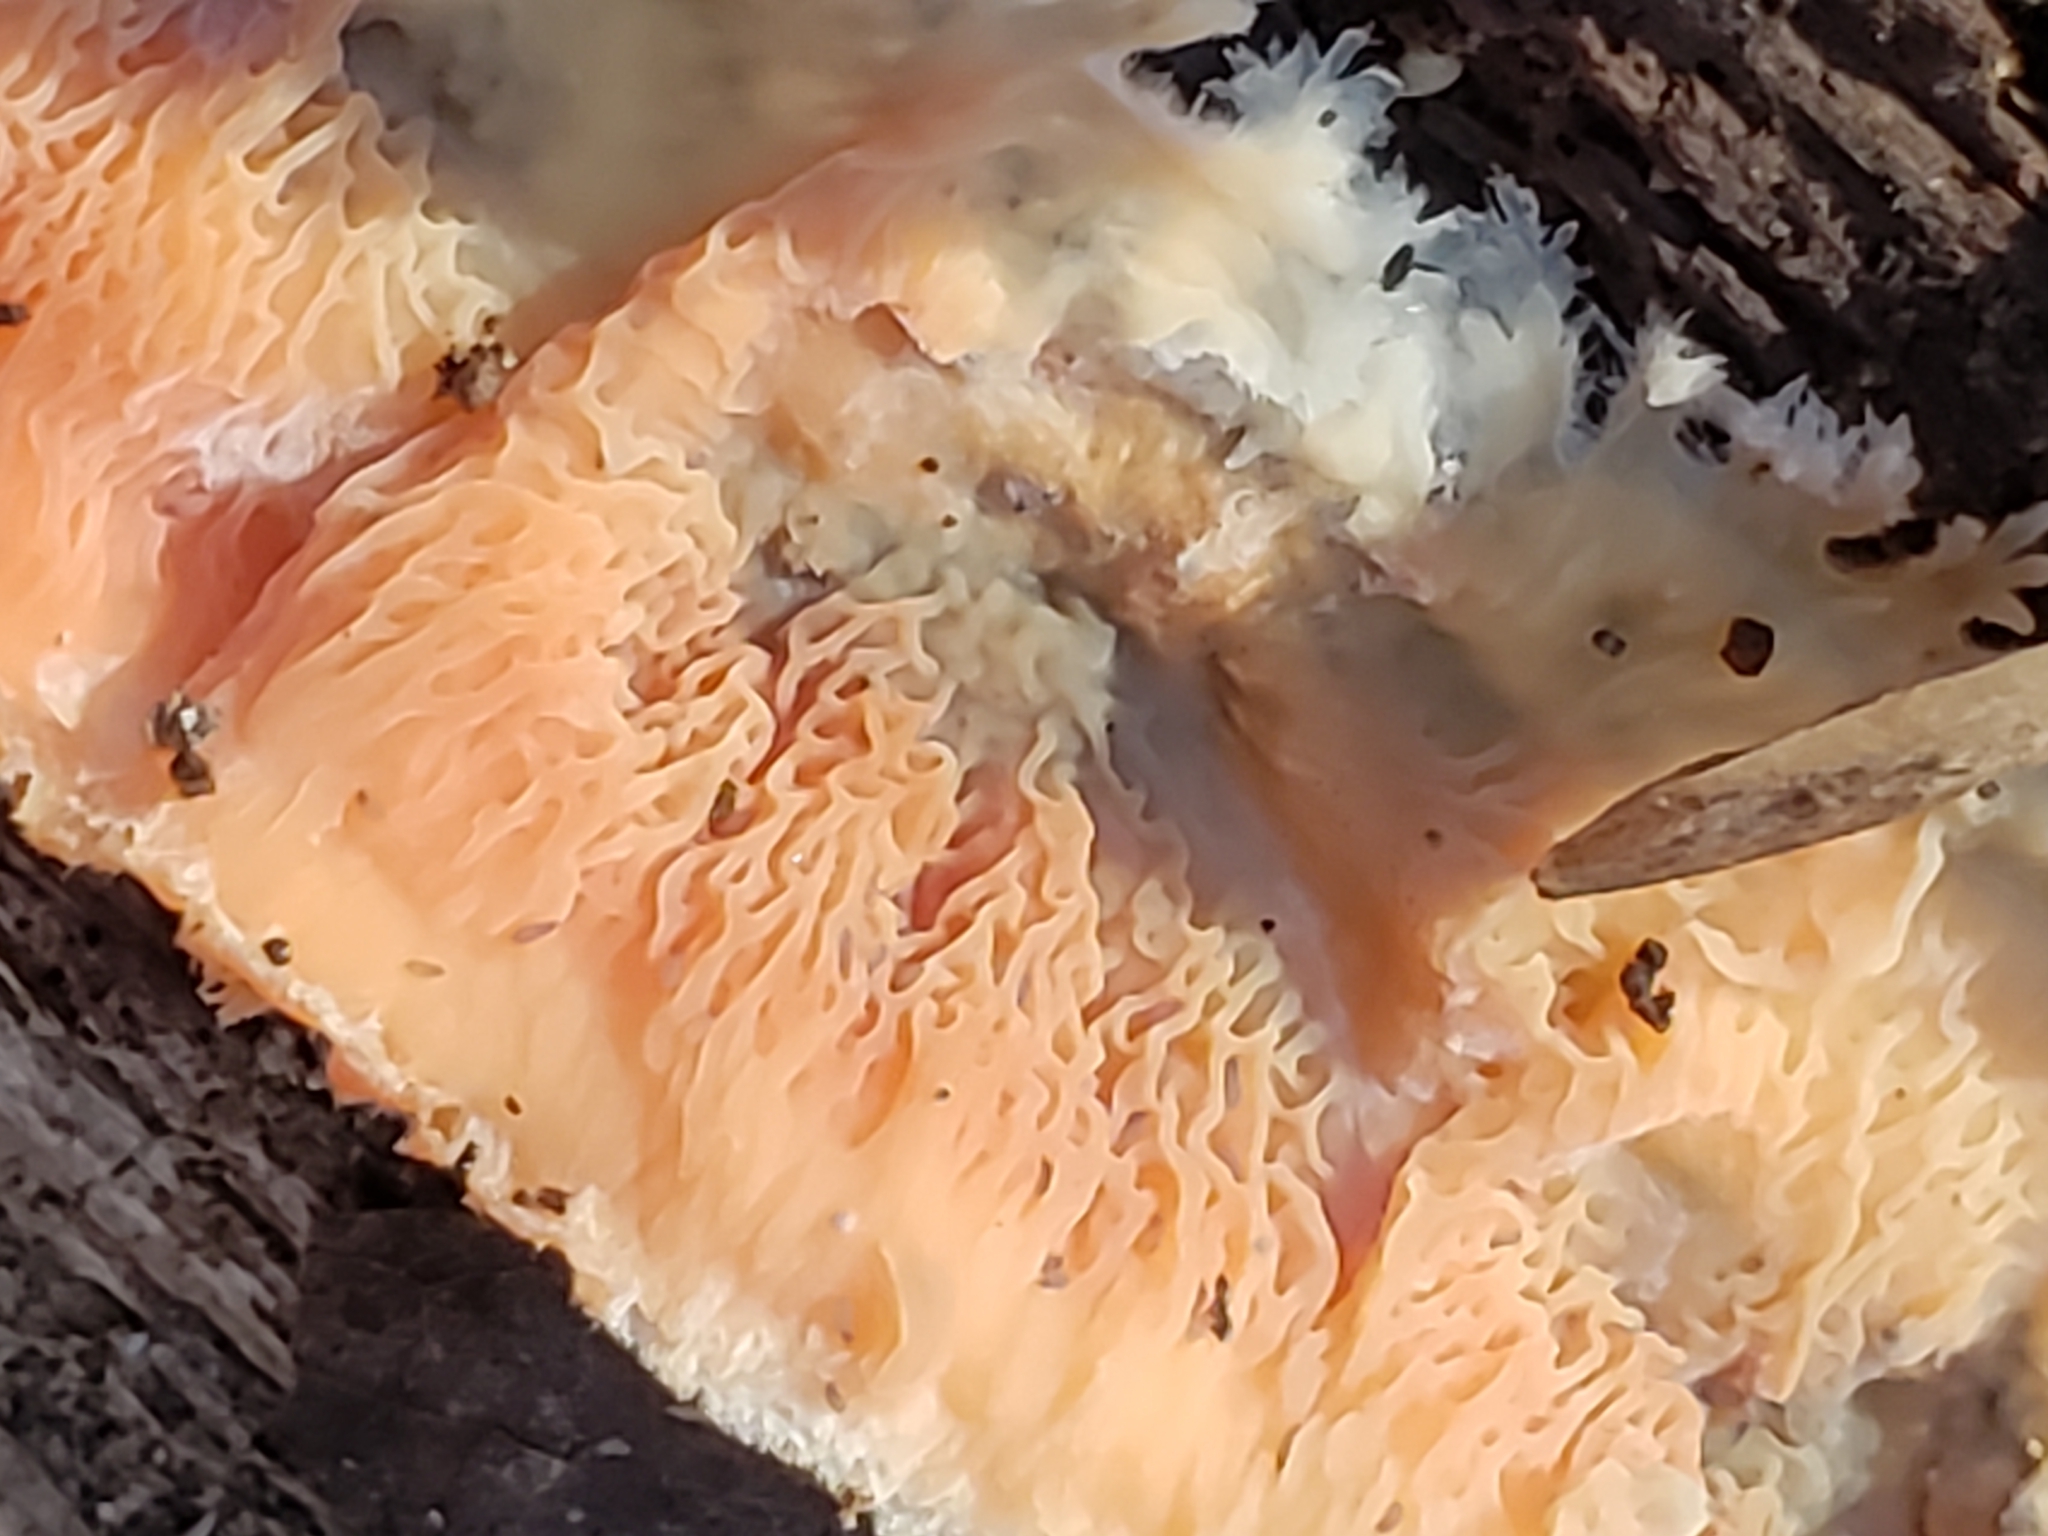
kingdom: Fungi
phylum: Basidiomycota
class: Agaricomycetes
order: Polyporales
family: Meruliaceae
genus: Phlebia
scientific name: Phlebia tremellosa
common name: Jelly rot
